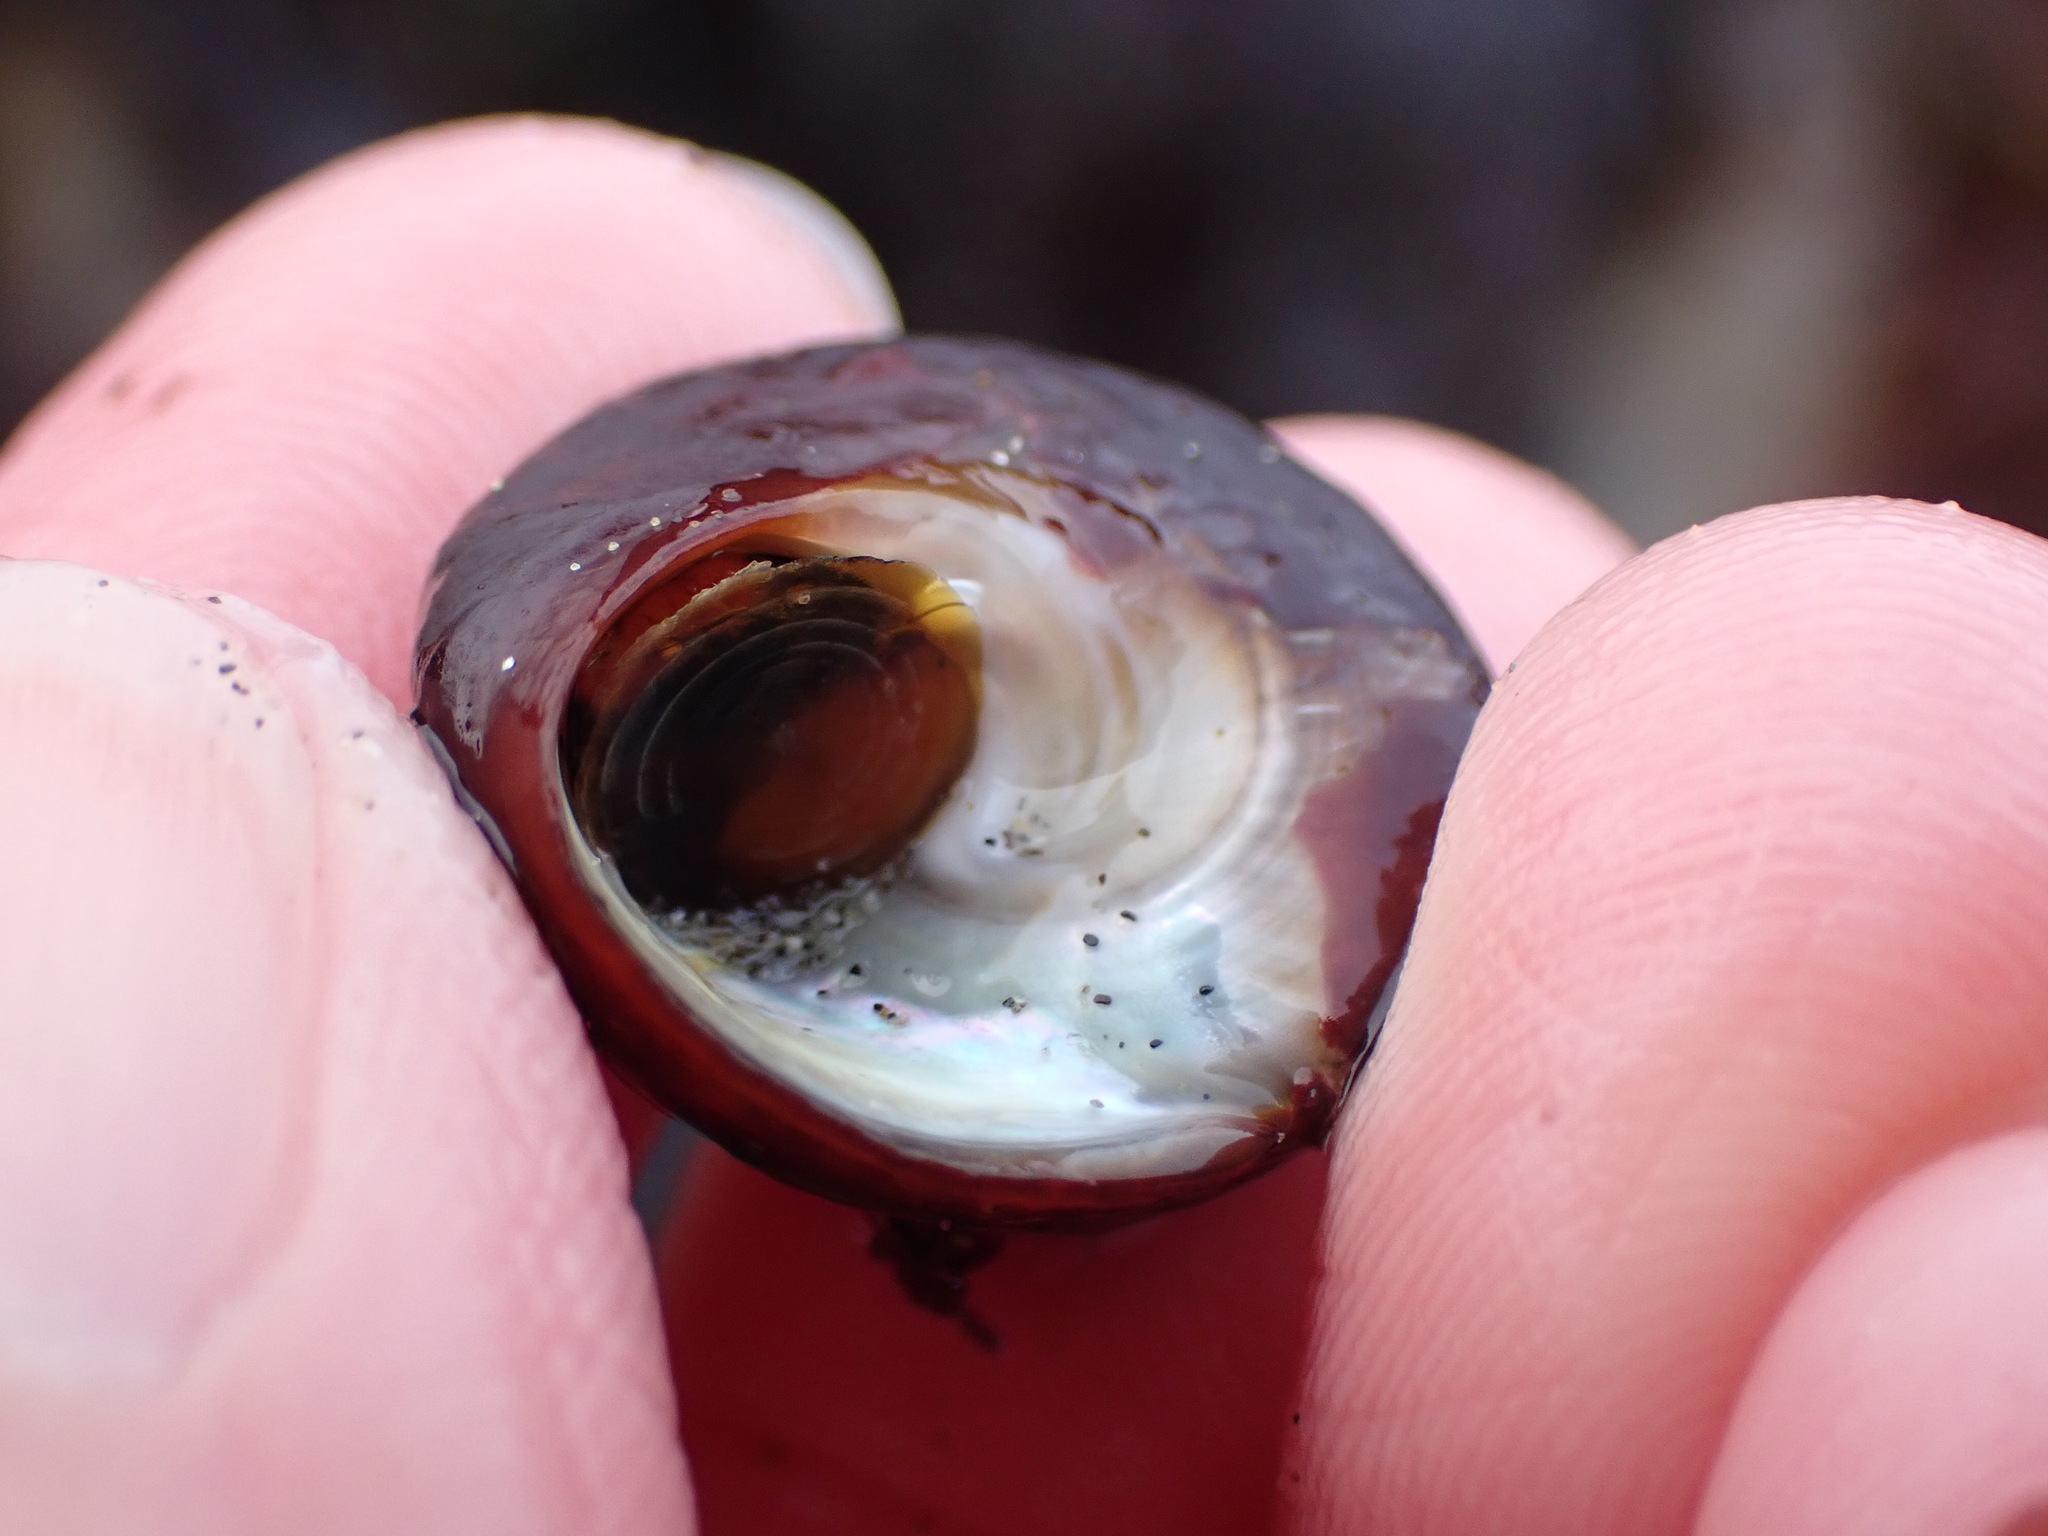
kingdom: Animalia
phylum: Mollusca
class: Gastropoda
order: Trochida
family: Tegulidae
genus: Tegula
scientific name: Tegula brunnea
